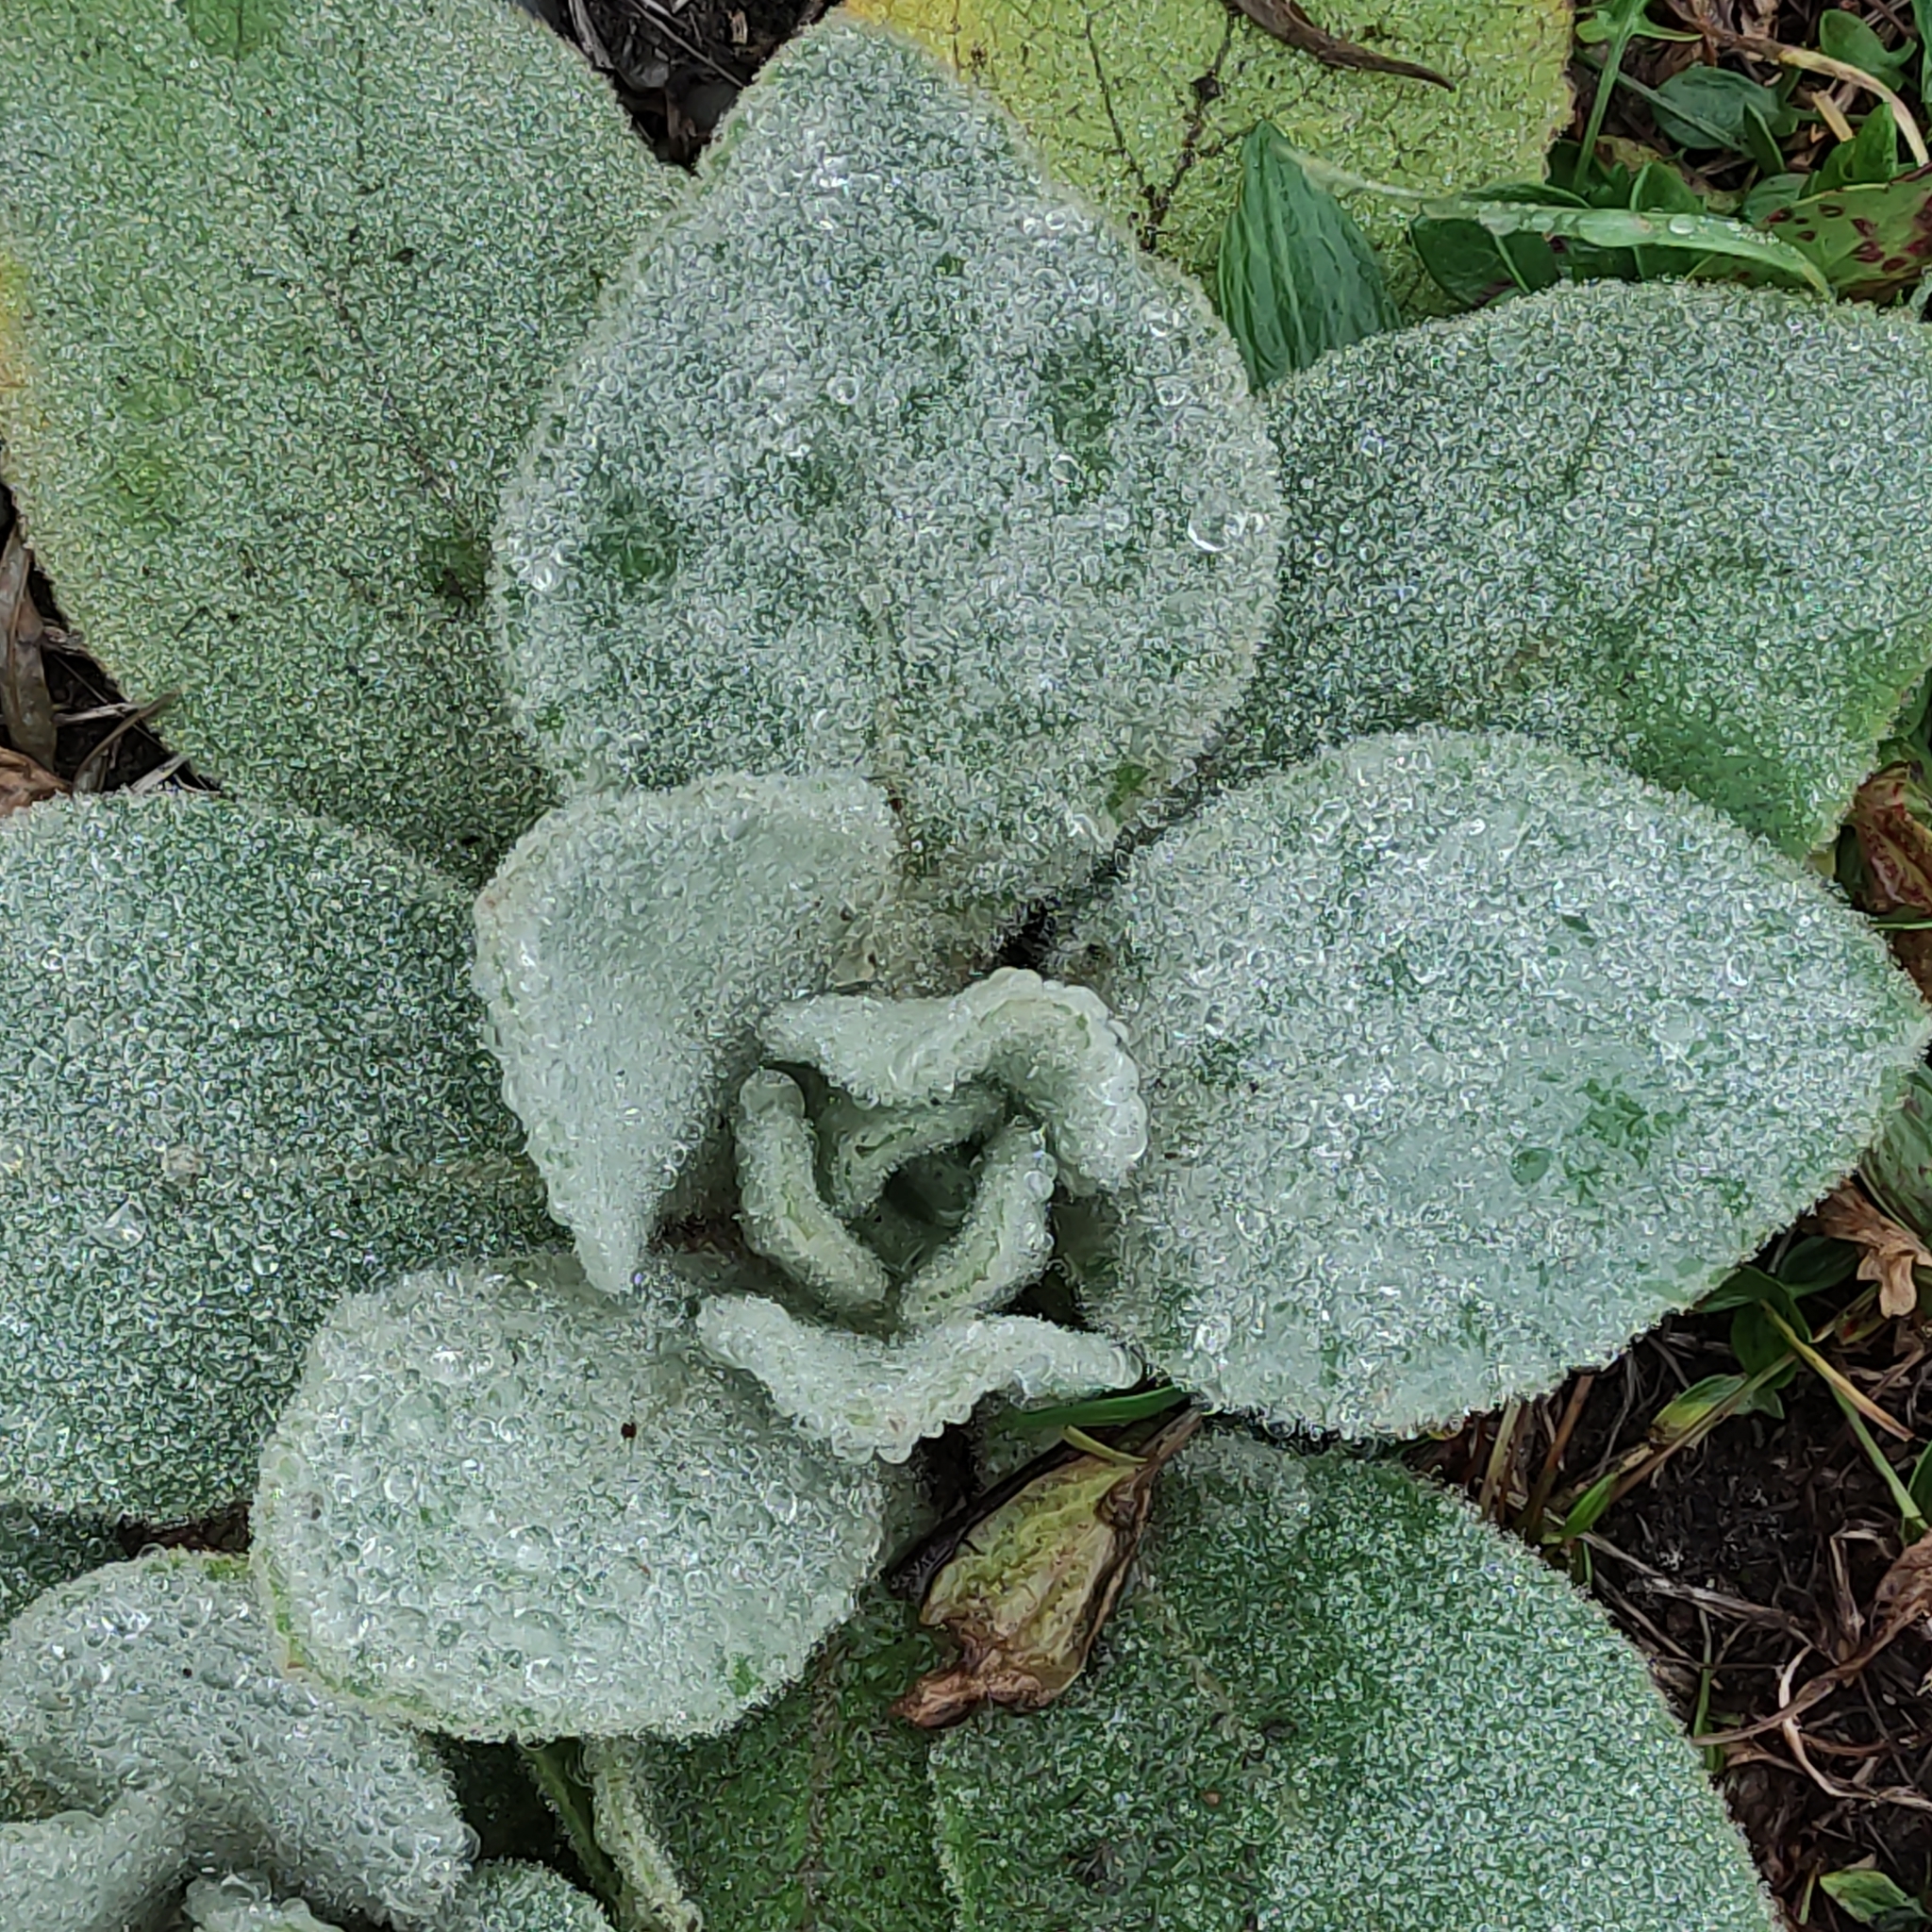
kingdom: Plantae
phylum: Tracheophyta
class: Magnoliopsida
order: Lamiales
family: Scrophulariaceae
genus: Verbascum
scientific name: Verbascum thapsus
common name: Common mullein
